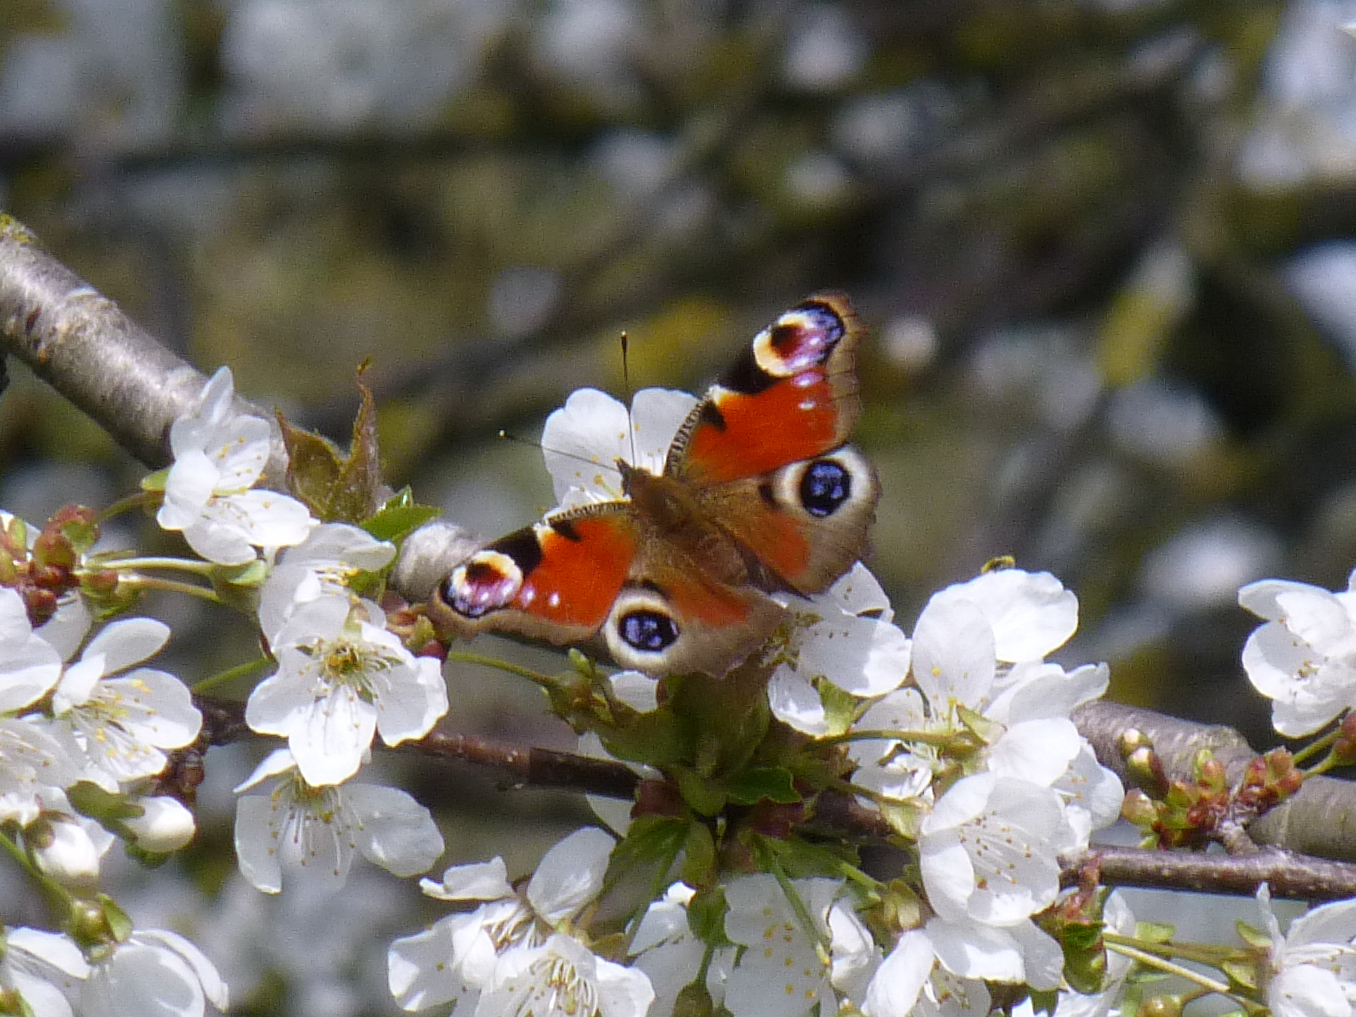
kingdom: Animalia
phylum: Arthropoda
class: Insecta
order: Lepidoptera
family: Nymphalidae
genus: Aglais
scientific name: Aglais io
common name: Peacock
